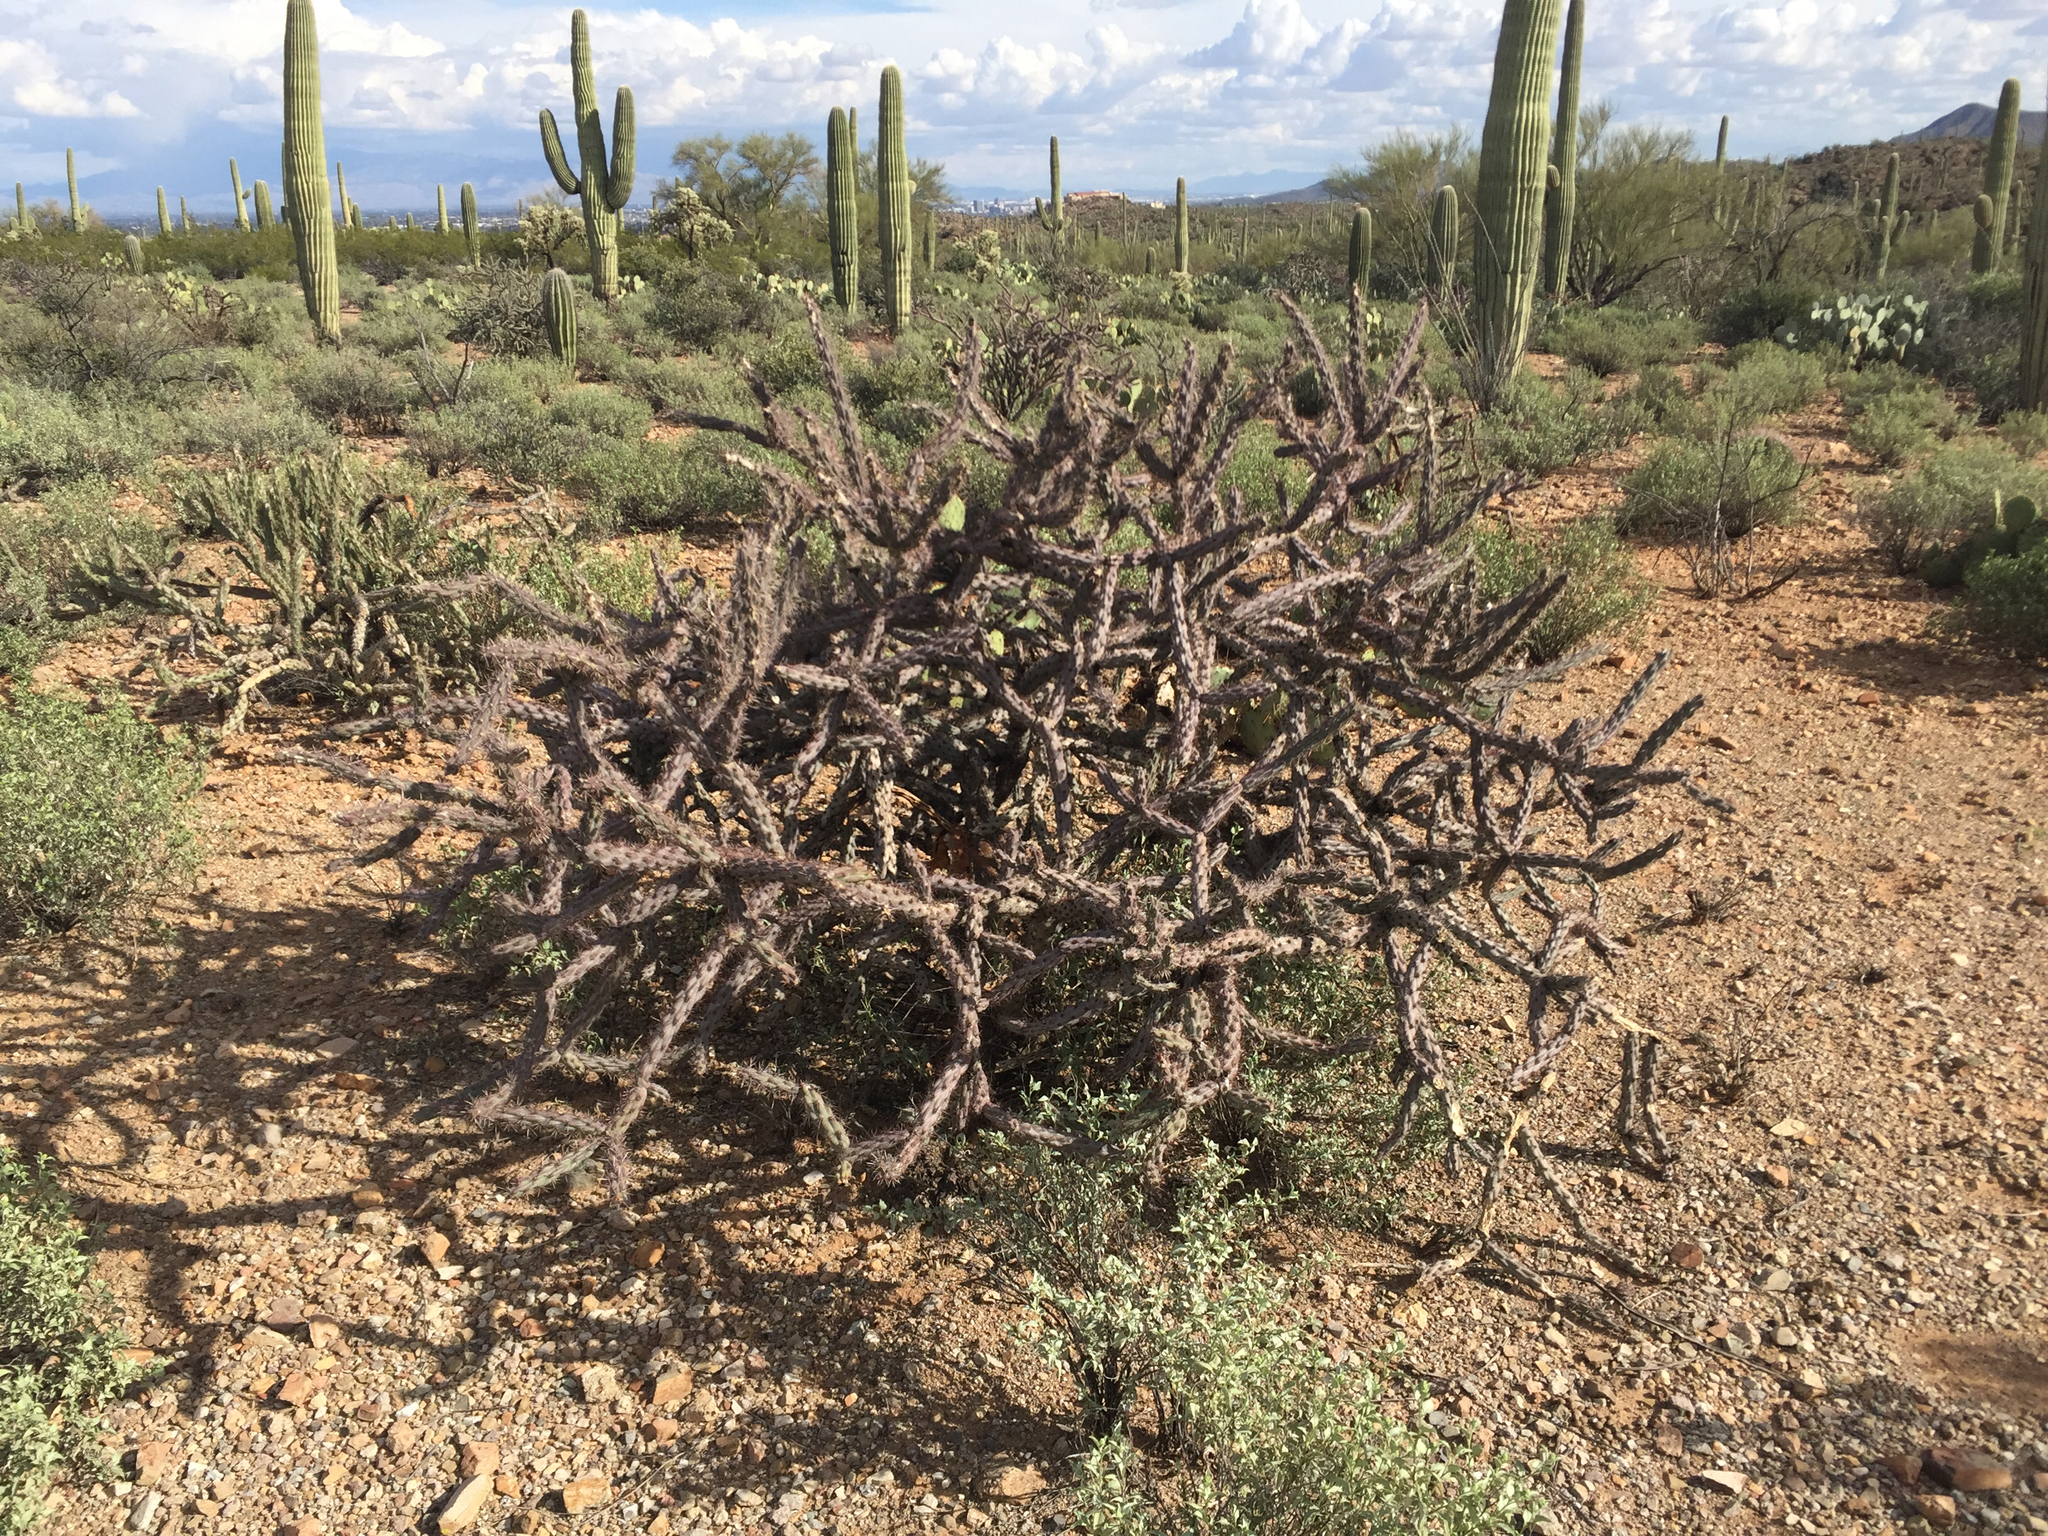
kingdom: Plantae
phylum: Tracheophyta
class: Magnoliopsida
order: Caryophyllales
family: Cactaceae
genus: Cylindropuntia
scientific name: Cylindropuntia thurberi
